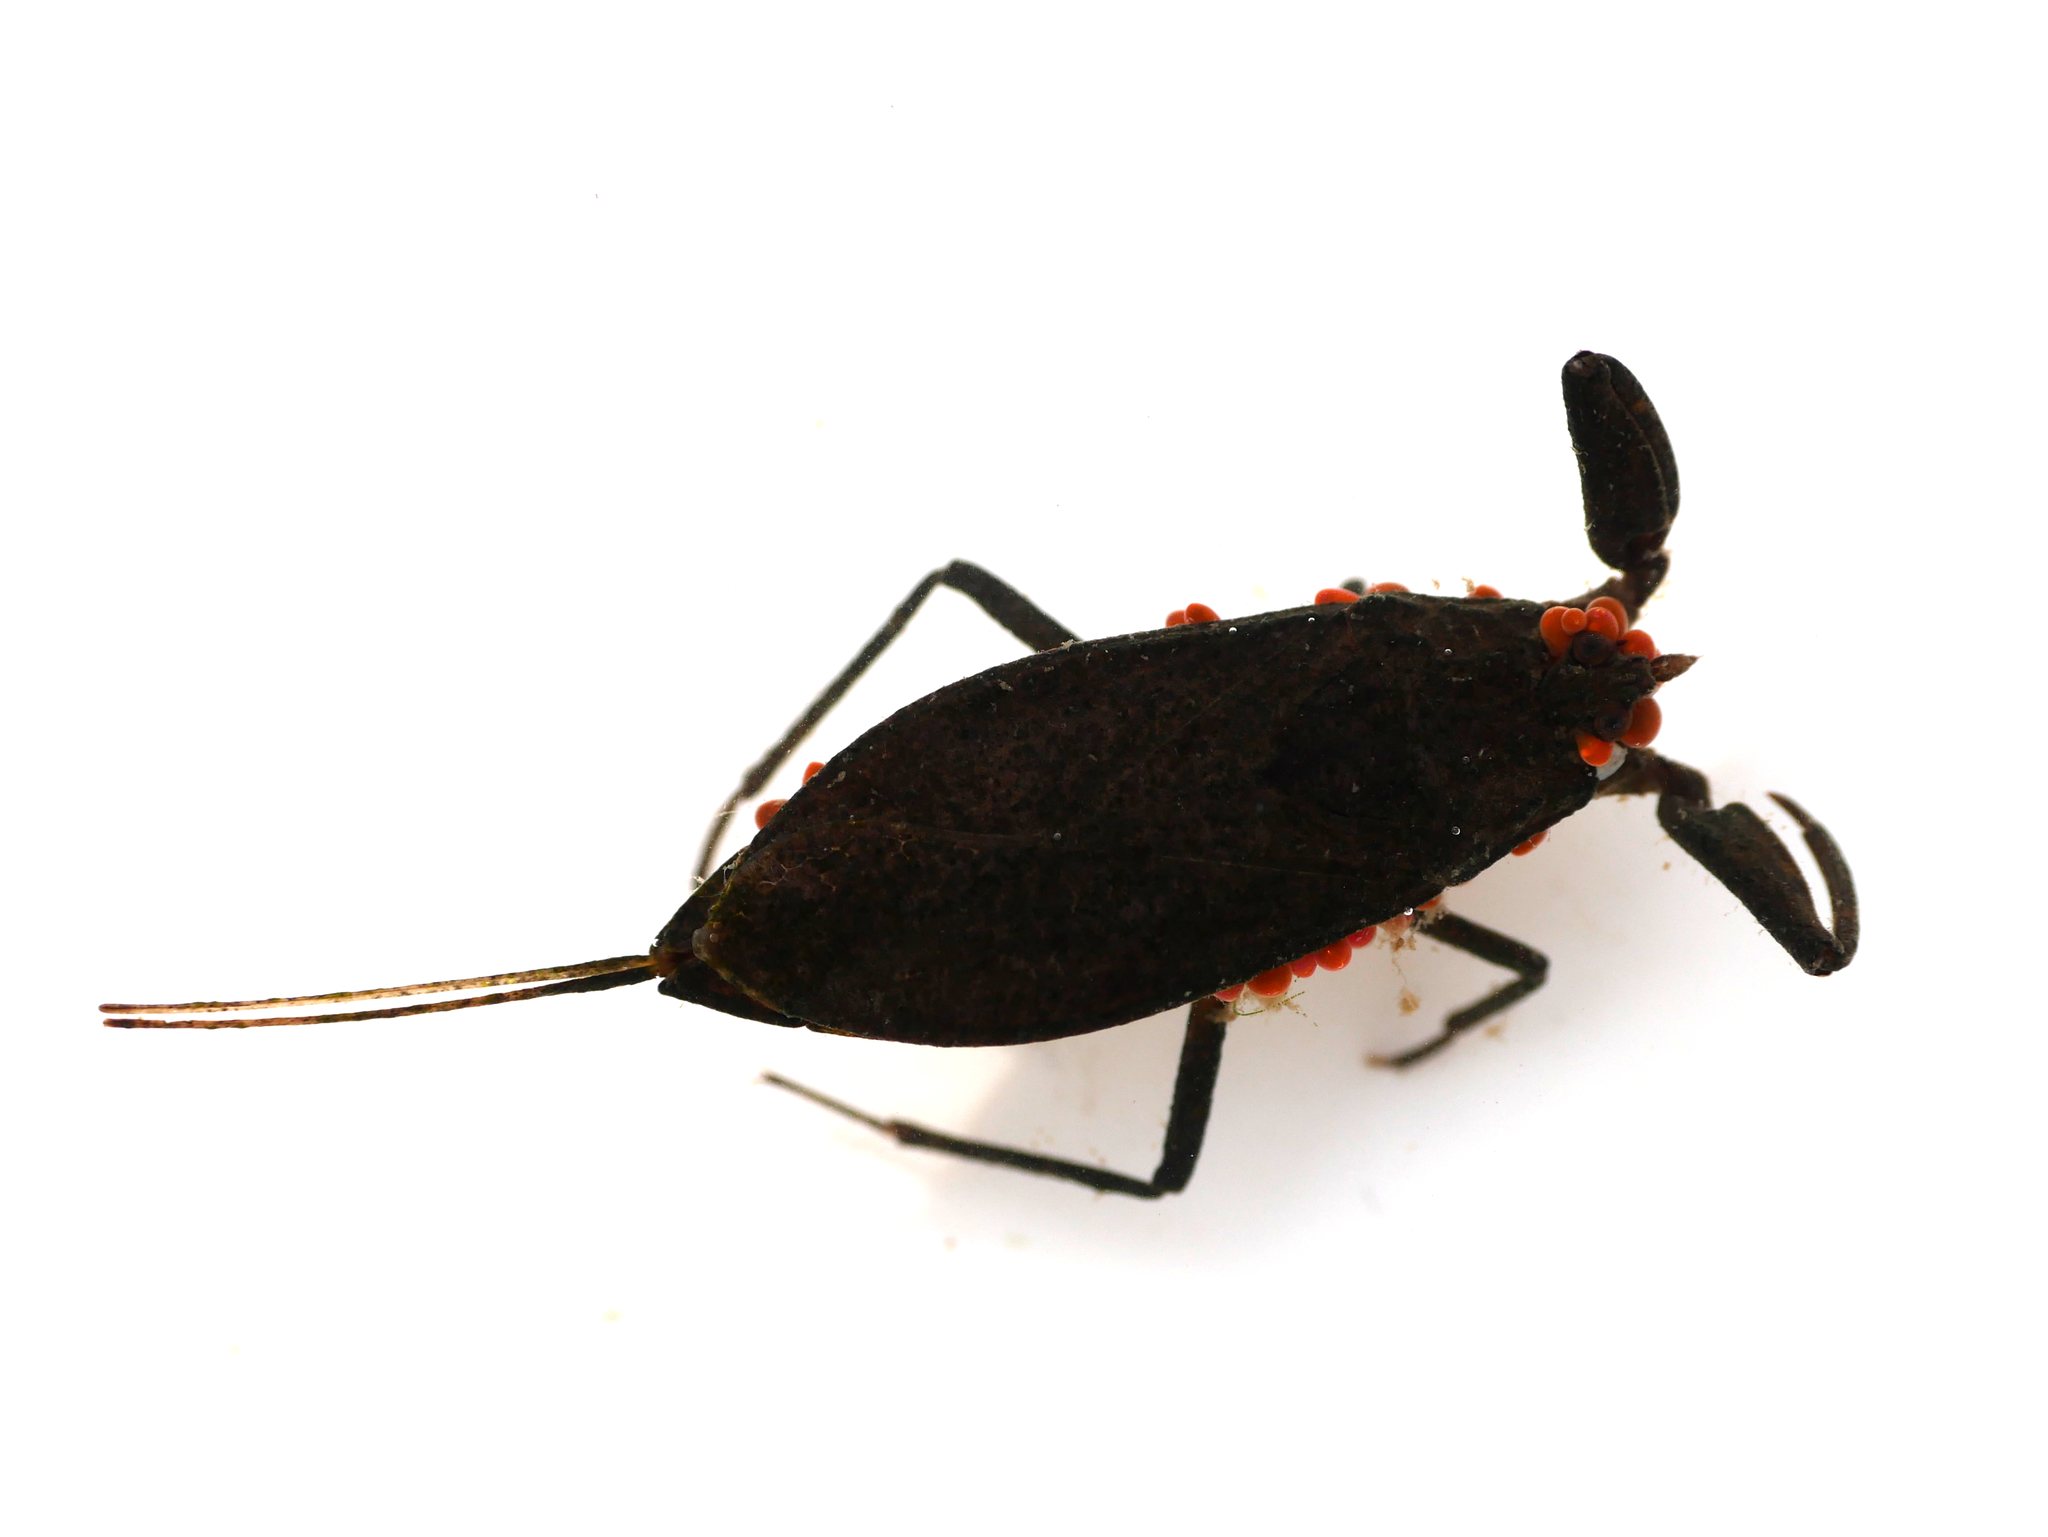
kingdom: Animalia
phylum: Arthropoda
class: Insecta
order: Hemiptera
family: Nepidae
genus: Nepa
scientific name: Nepa cinerea
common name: Water scorpion
